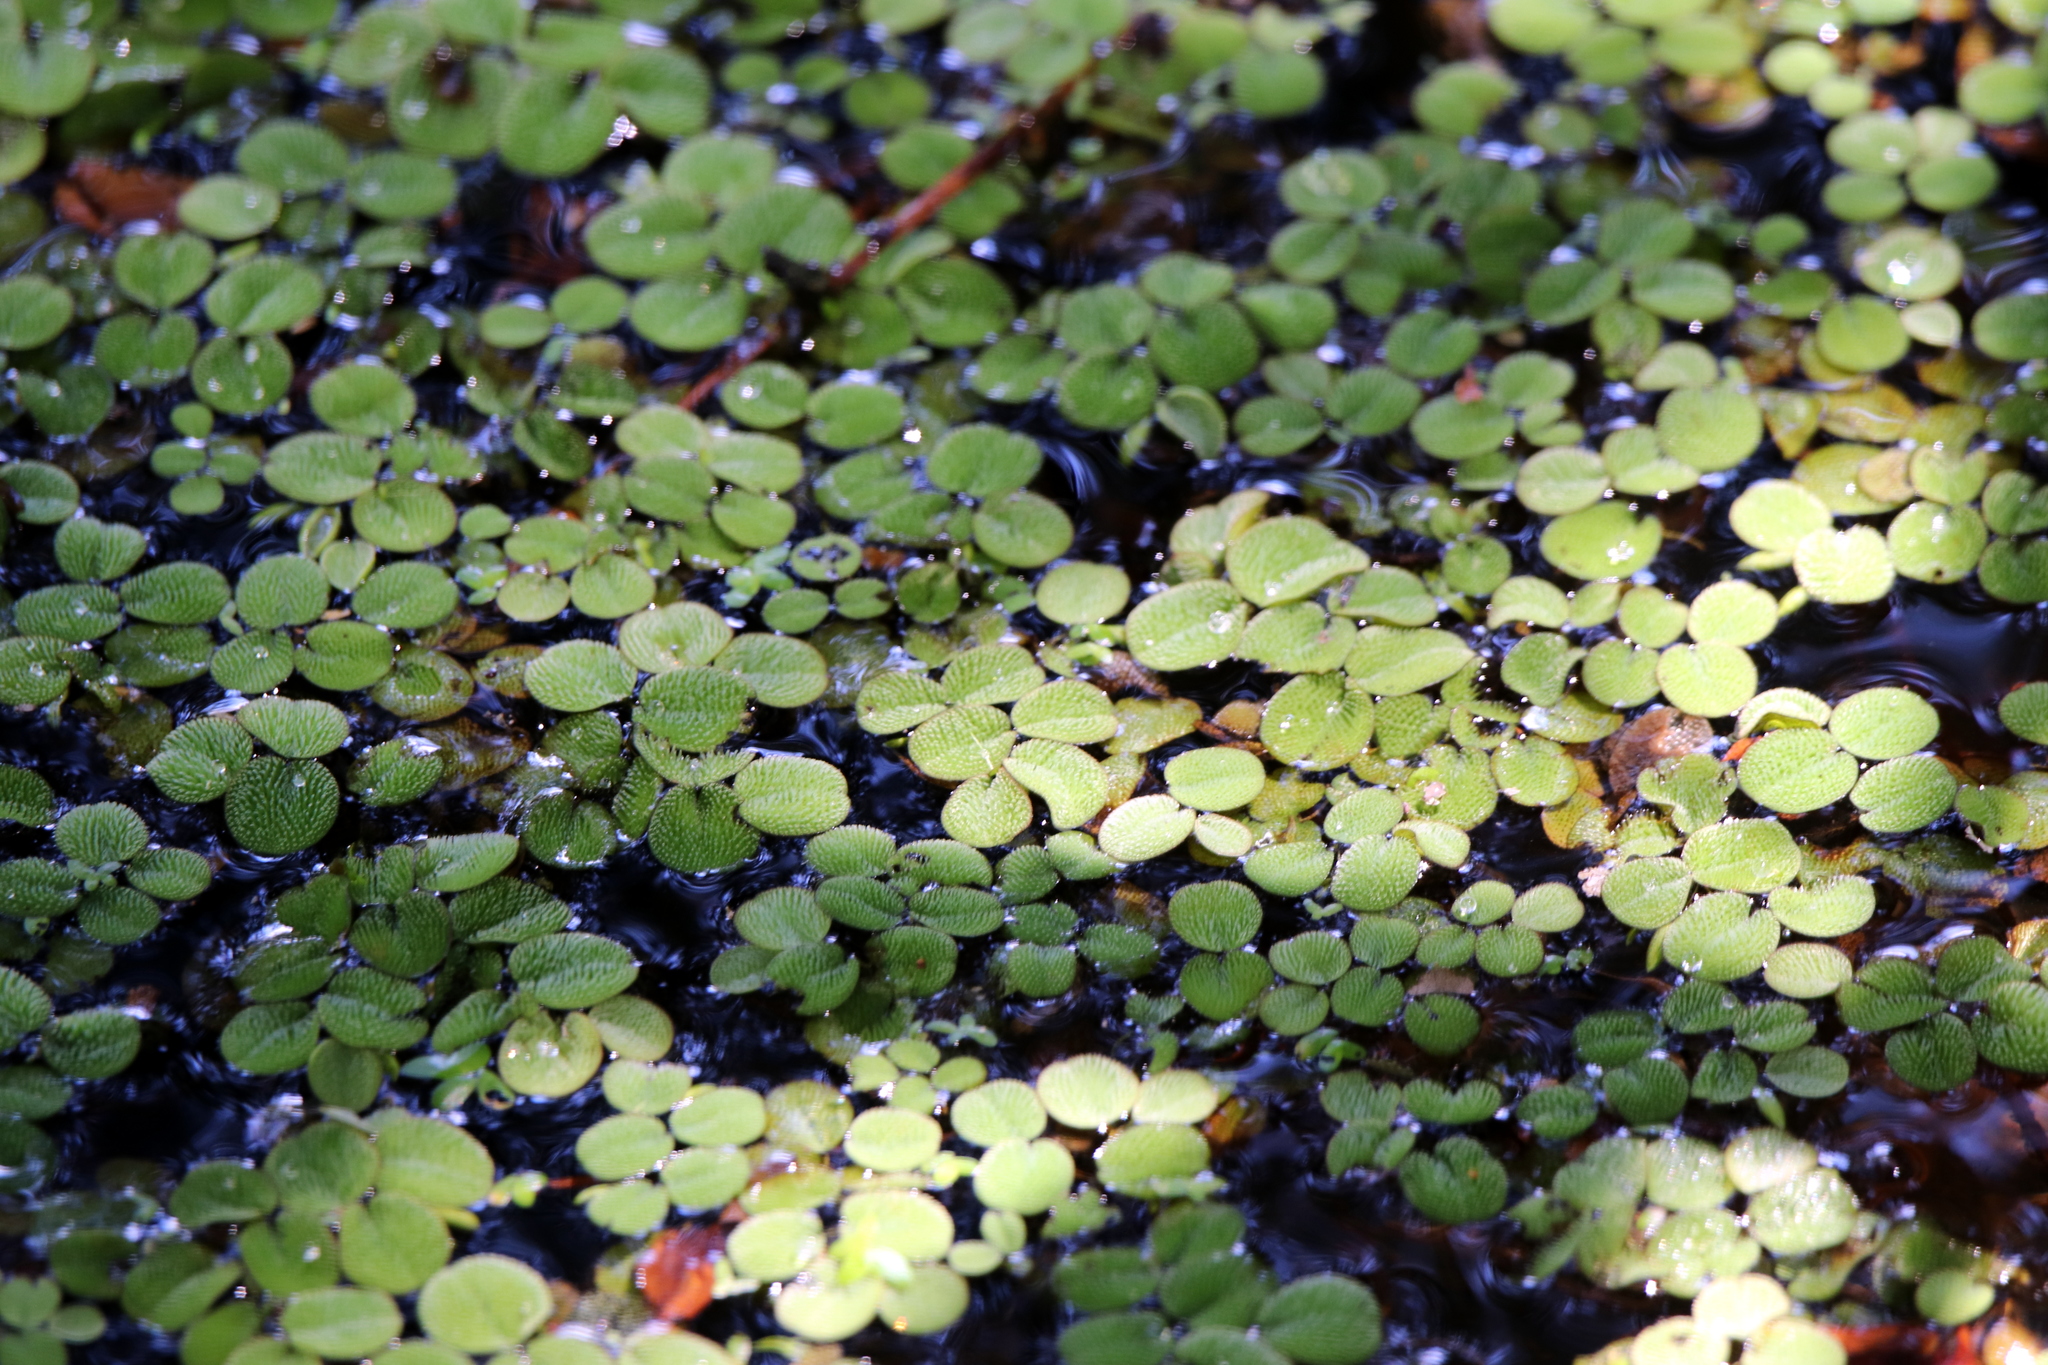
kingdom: Plantae
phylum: Tracheophyta
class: Polypodiopsida
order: Salviniales
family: Salviniaceae
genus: Salvinia
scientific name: Salvinia minima
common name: Water spangles
